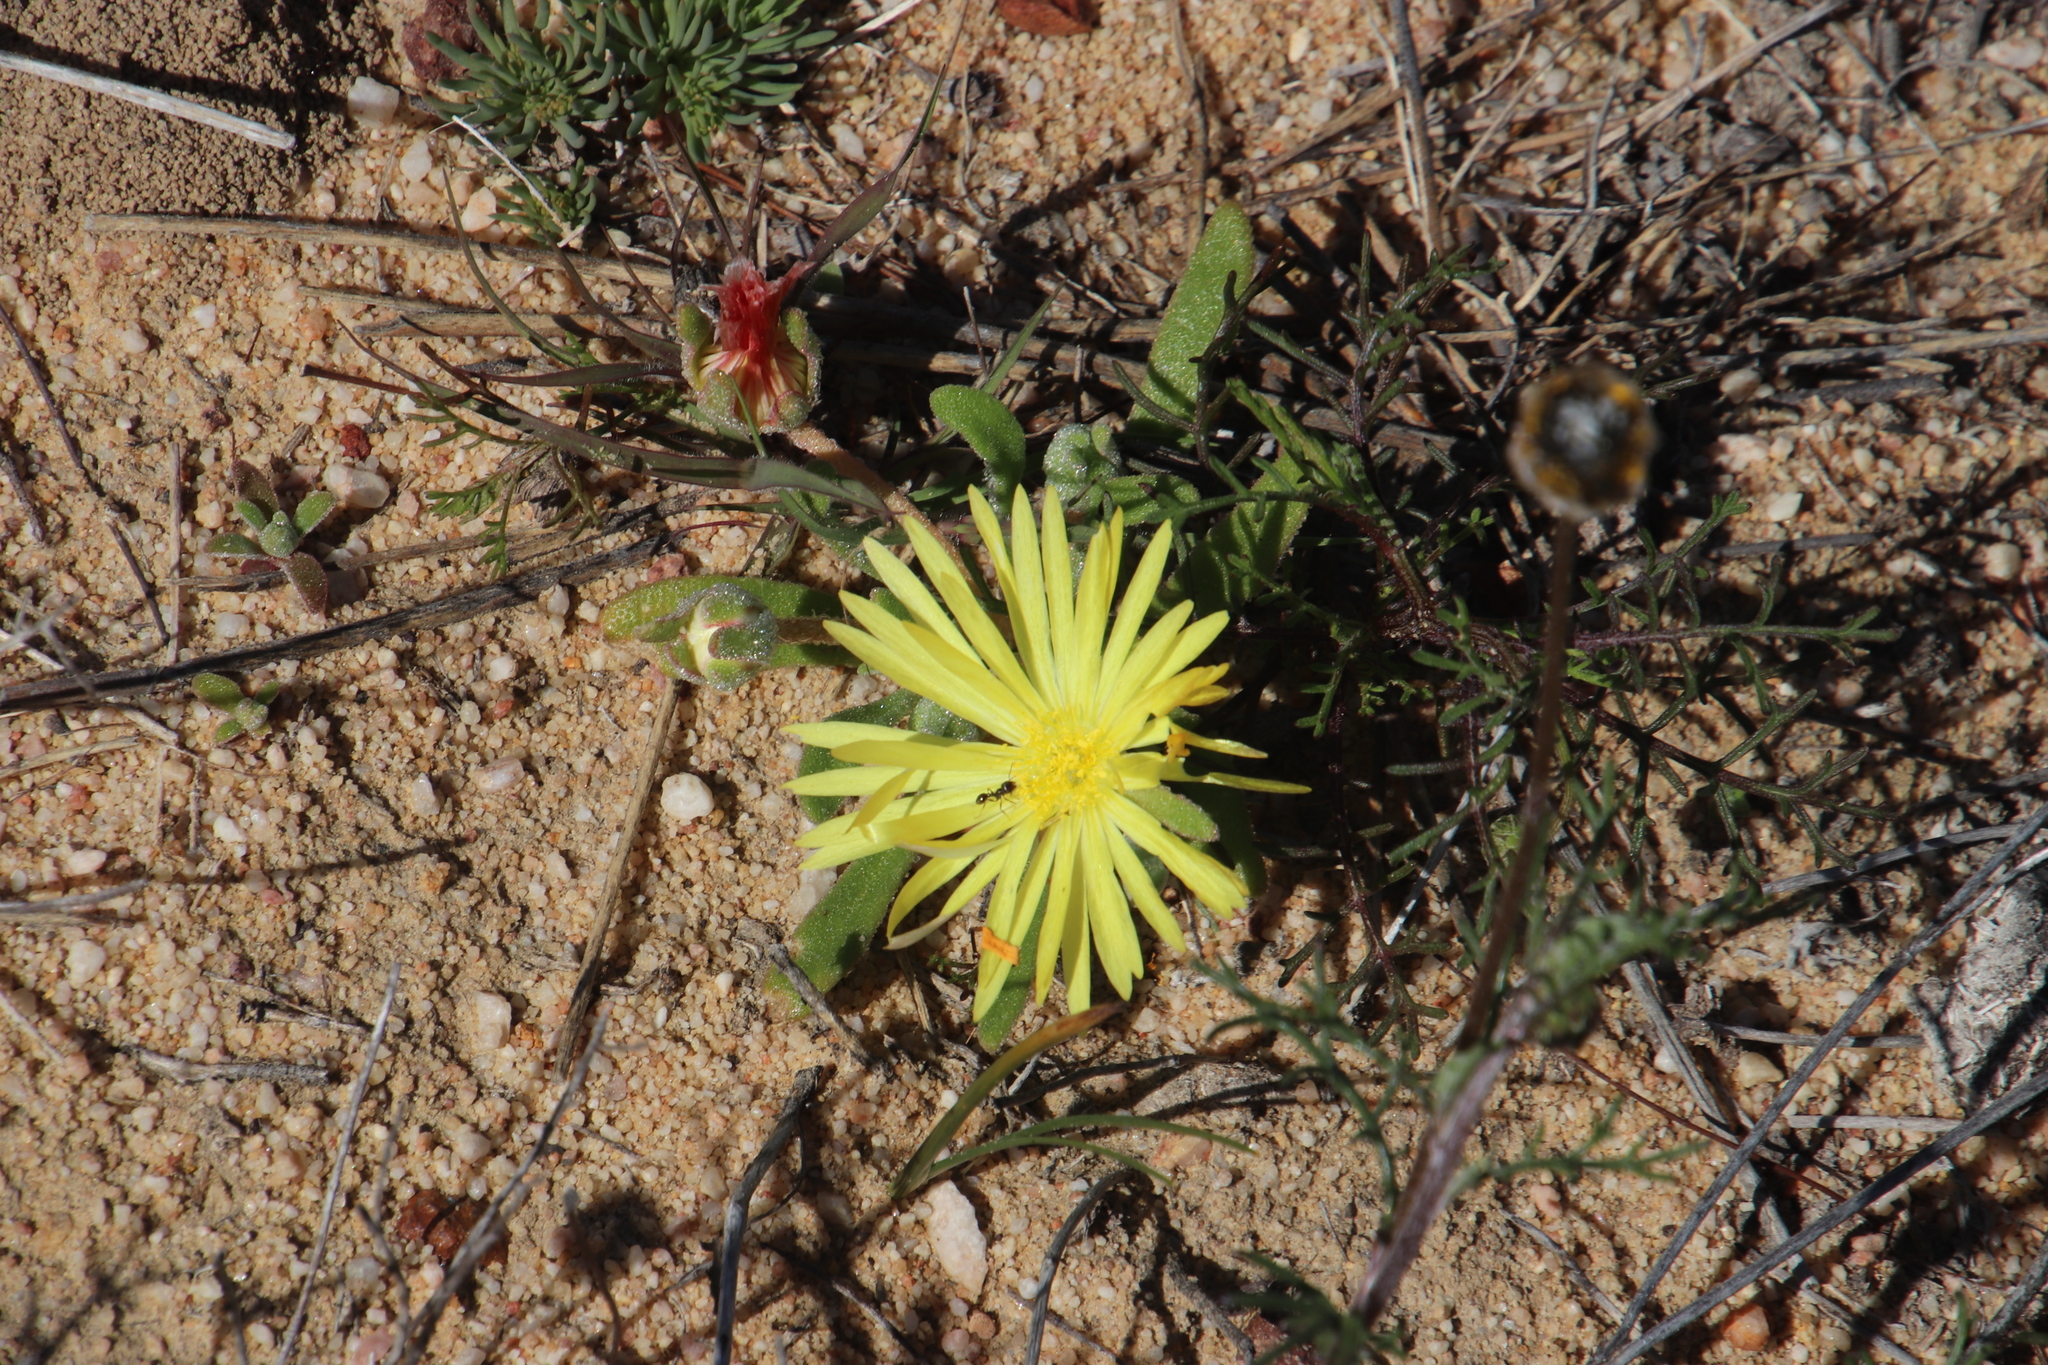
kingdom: Plantae
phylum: Tracheophyta
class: Magnoliopsida
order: Caryophyllales
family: Aizoaceae
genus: Cleretum
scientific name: Cleretum bellidiforme
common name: Livingstone daisy
